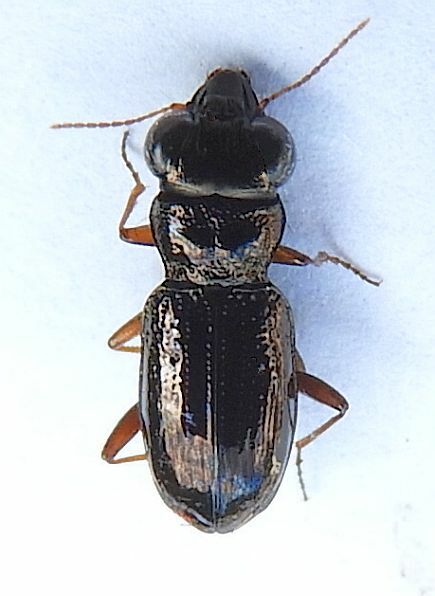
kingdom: Animalia
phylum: Arthropoda
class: Insecta
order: Coleoptera
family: Carabidae
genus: Notiophilus
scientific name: Notiophilus aeneus
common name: Brassy big-eyed beetle
